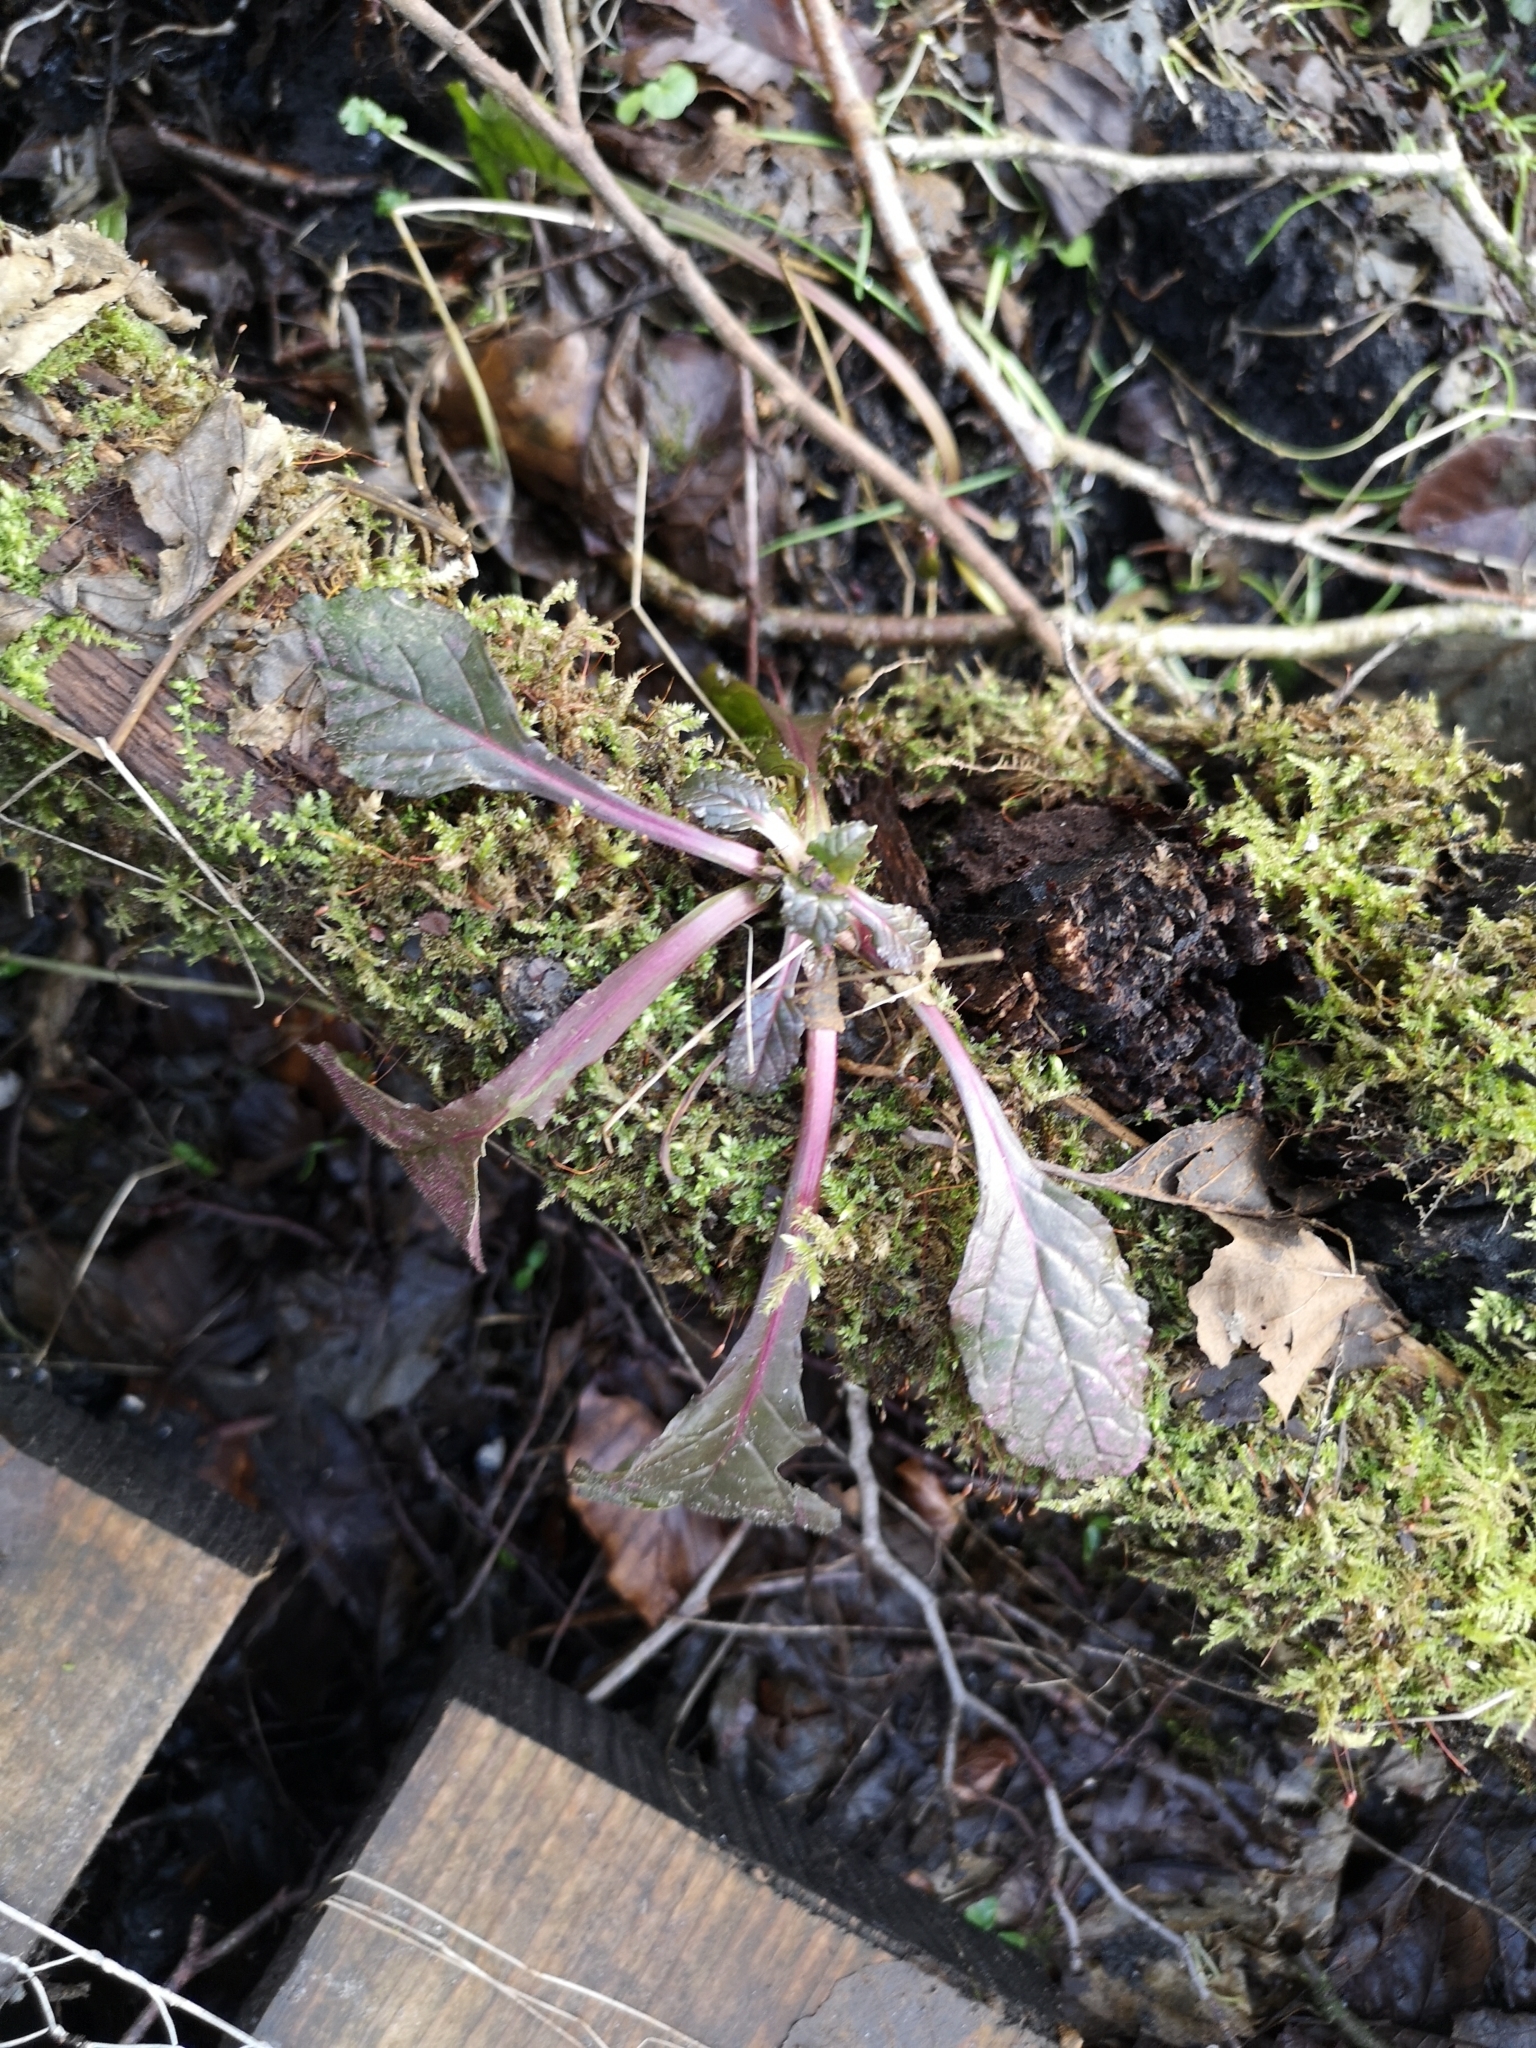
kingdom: Plantae
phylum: Tracheophyta
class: Magnoliopsida
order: Lamiales
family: Lamiaceae
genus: Ajuga
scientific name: Ajuga reptans
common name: Bugle
